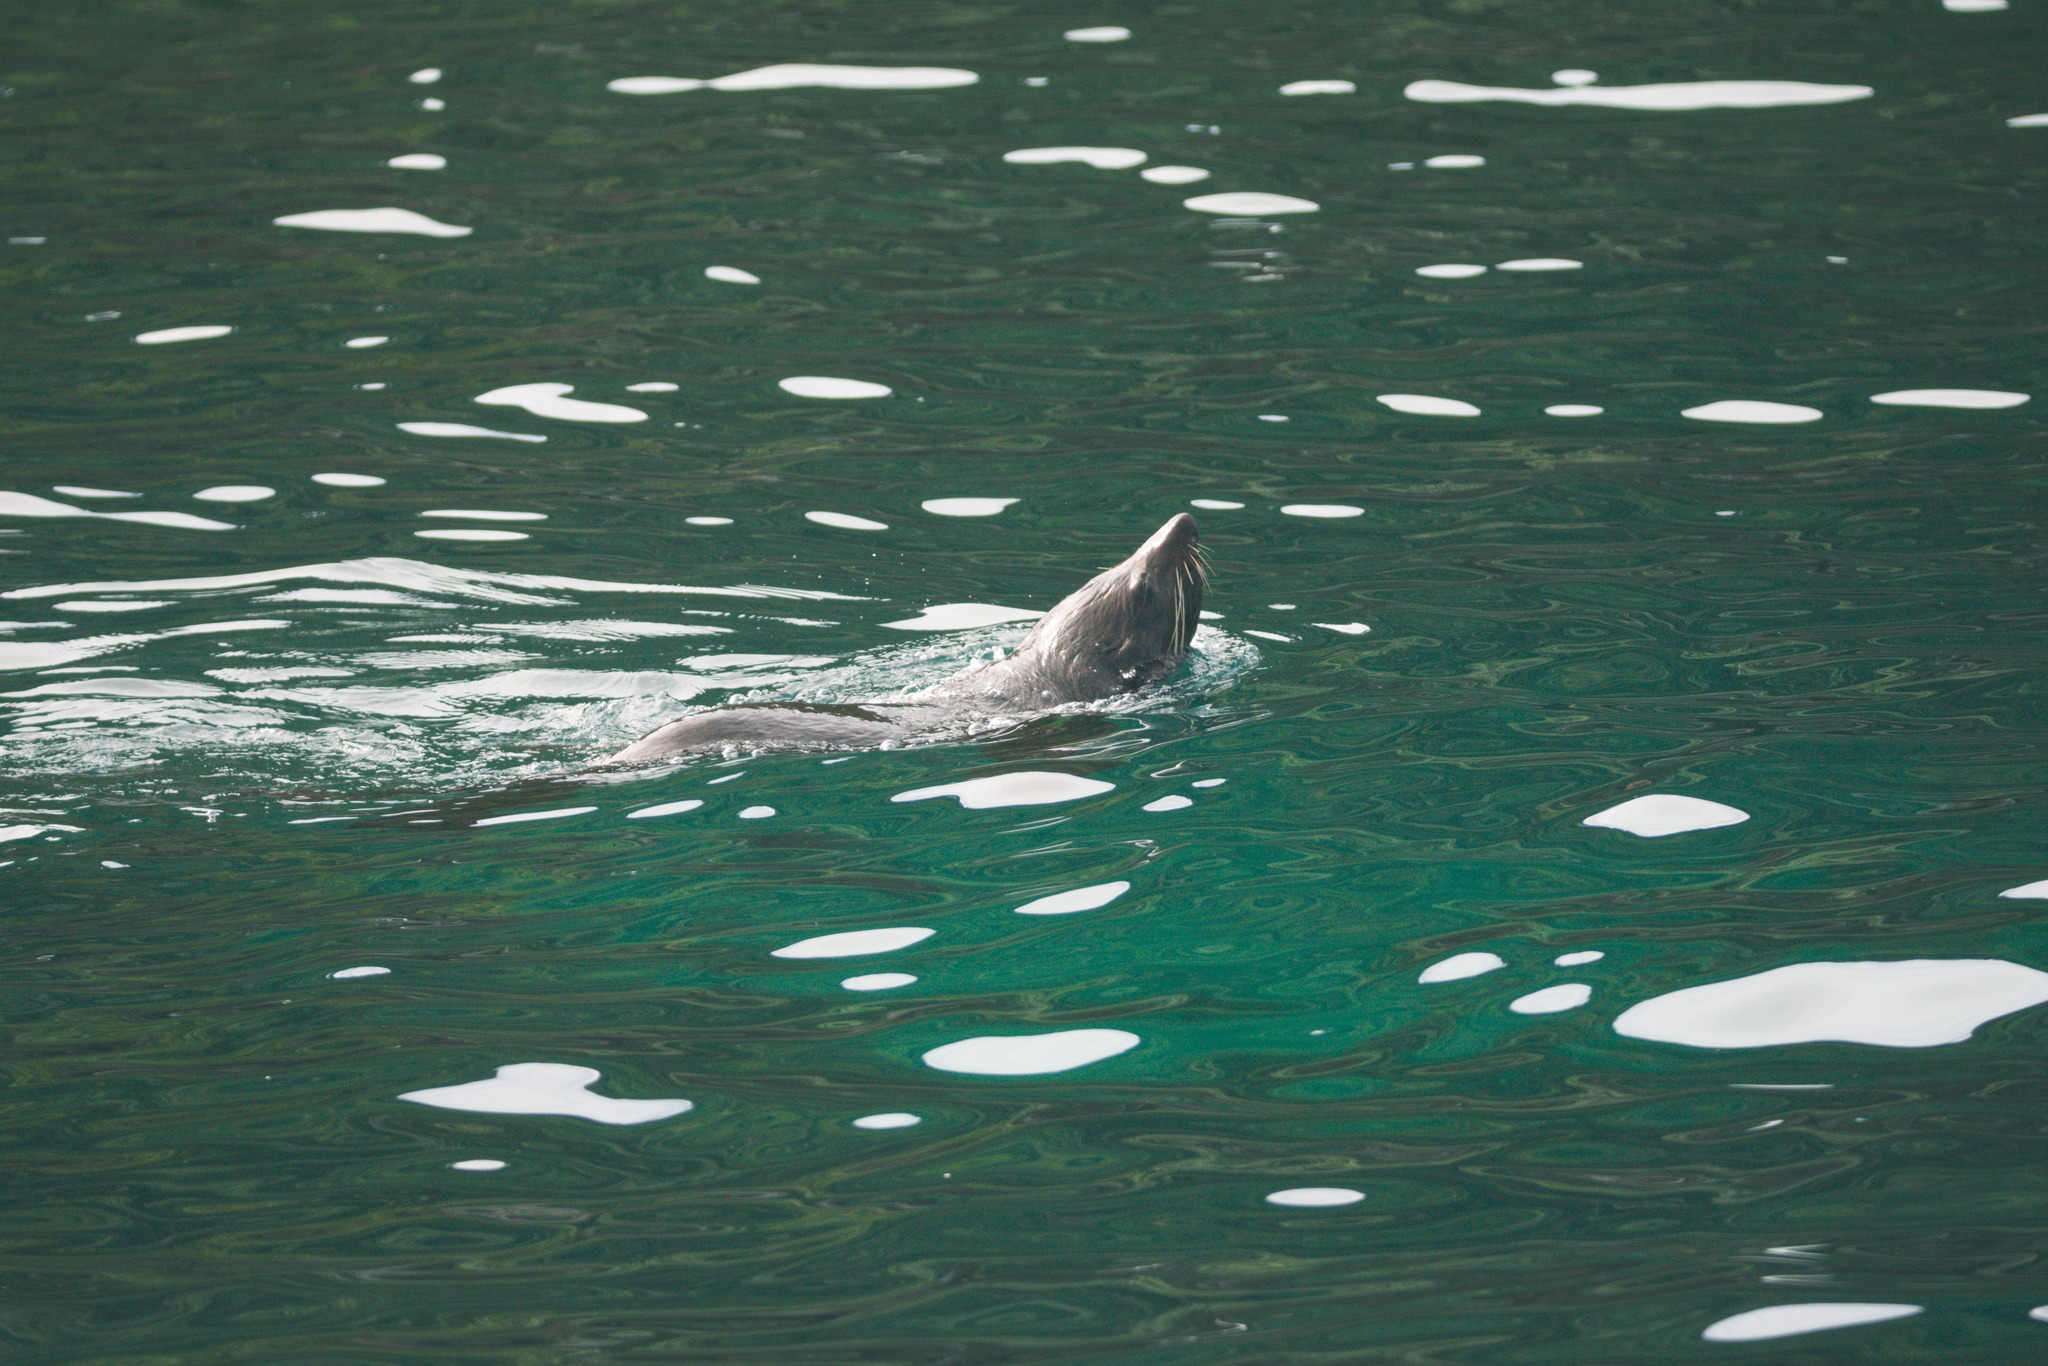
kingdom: Animalia
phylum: Chordata
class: Mammalia
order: Carnivora
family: Otariidae
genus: Arctocephalus
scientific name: Arctocephalus forsteri
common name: New zealand fur seal
